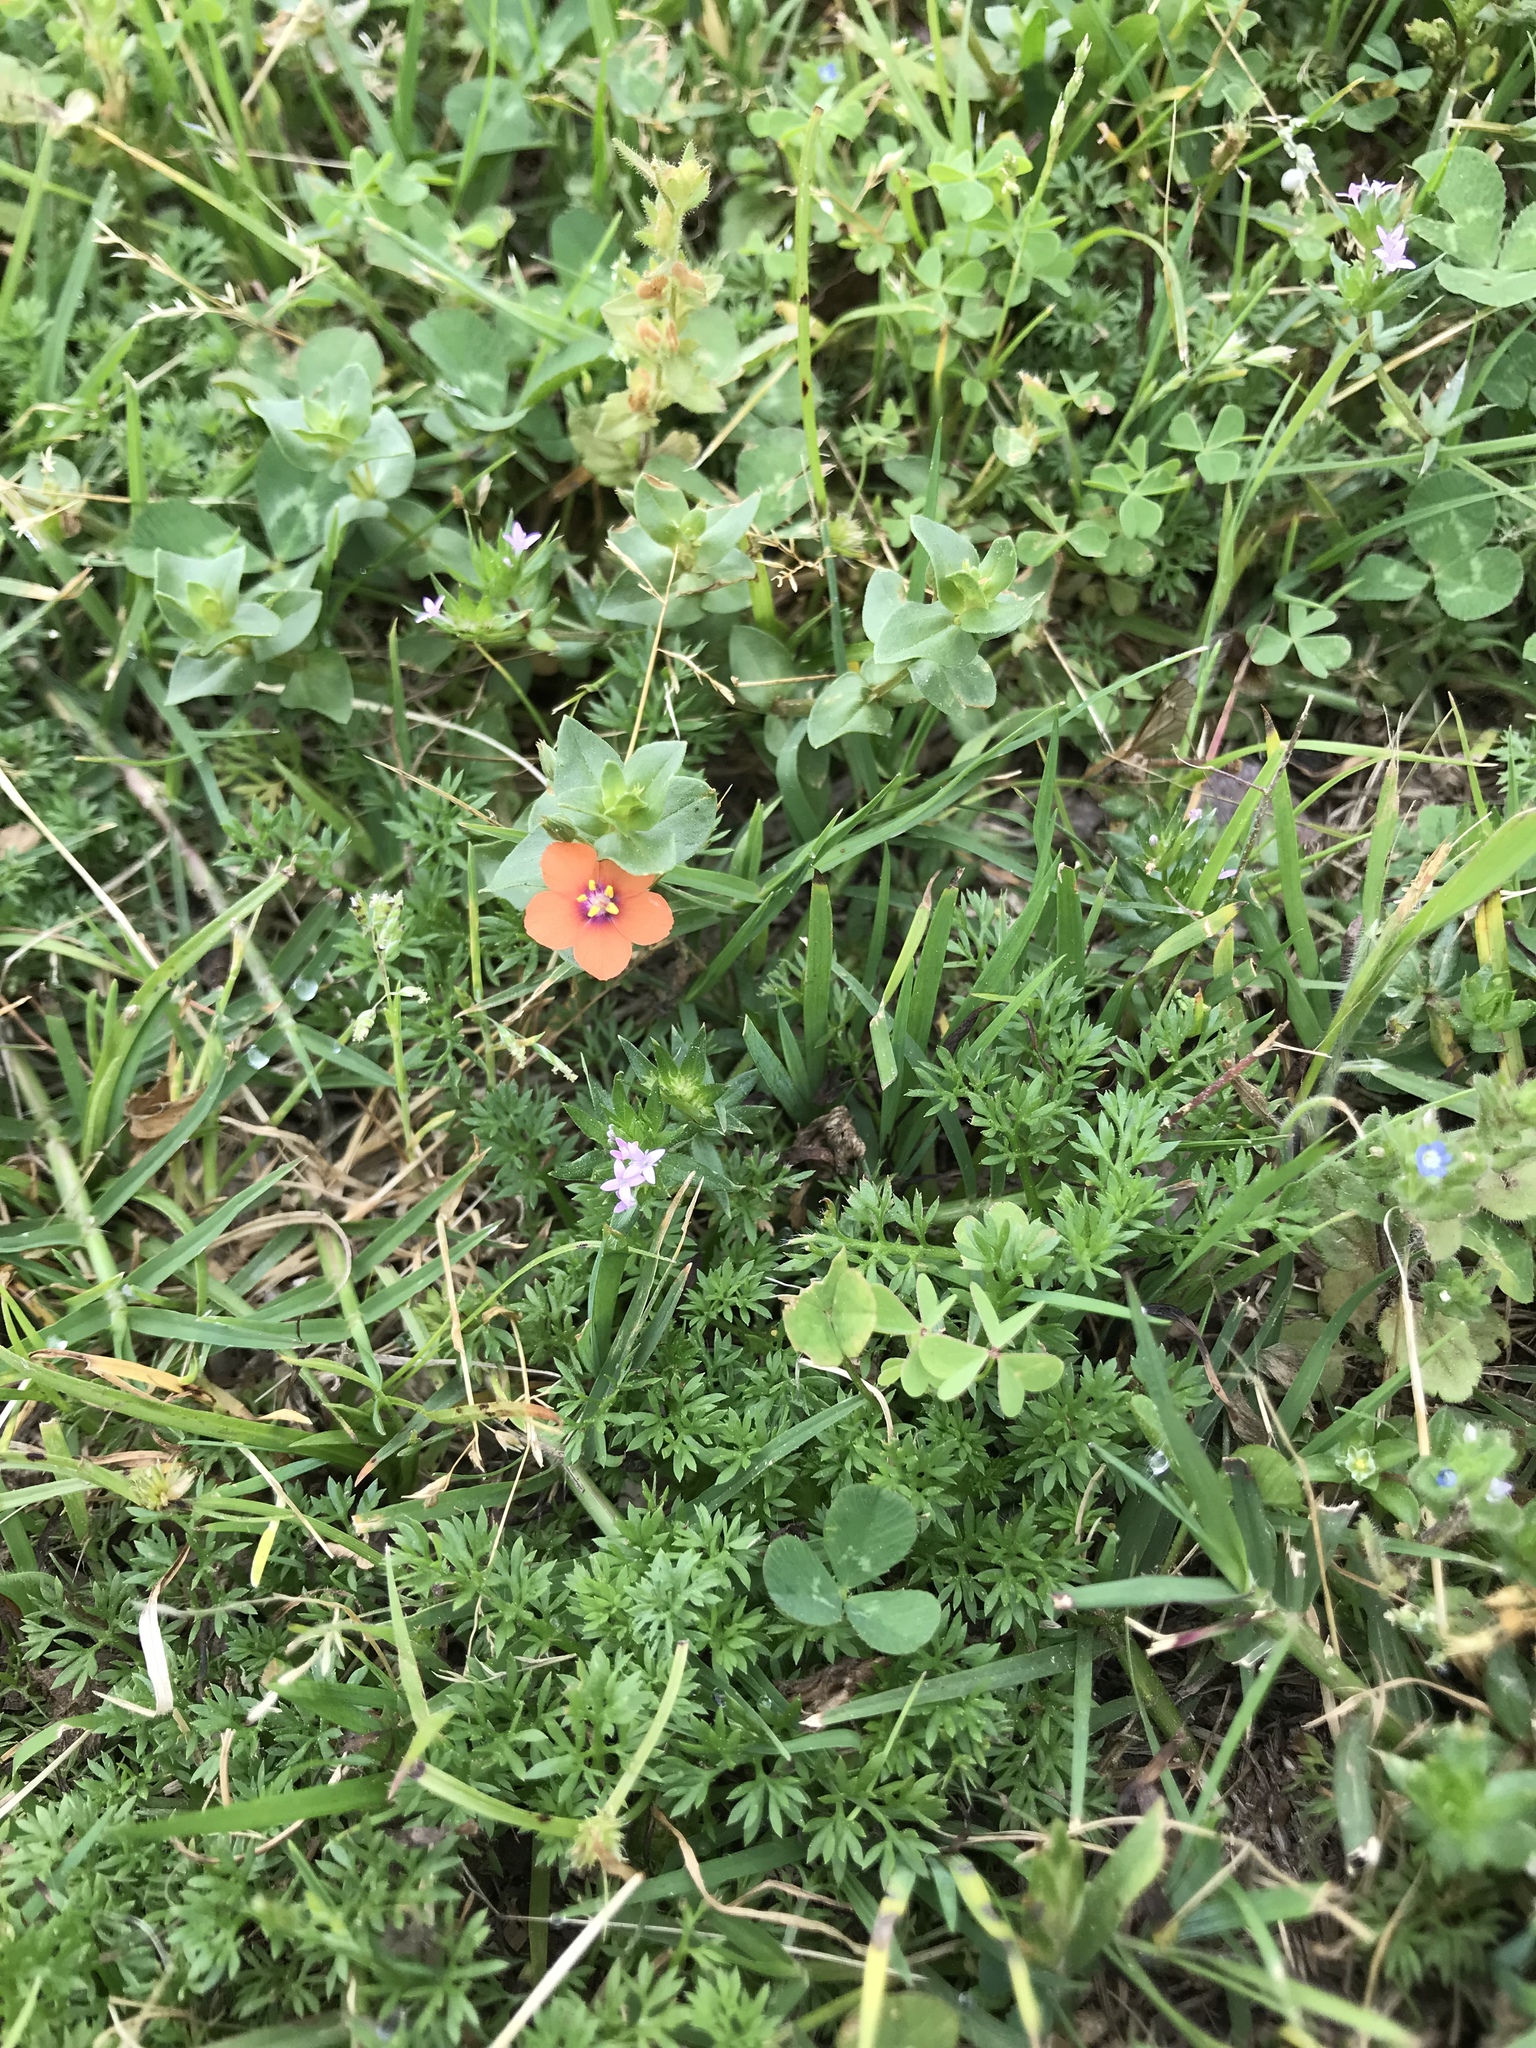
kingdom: Plantae
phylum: Tracheophyta
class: Magnoliopsida
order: Ericales
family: Primulaceae
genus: Lysimachia
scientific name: Lysimachia arvensis
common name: Scarlet pimpernel
